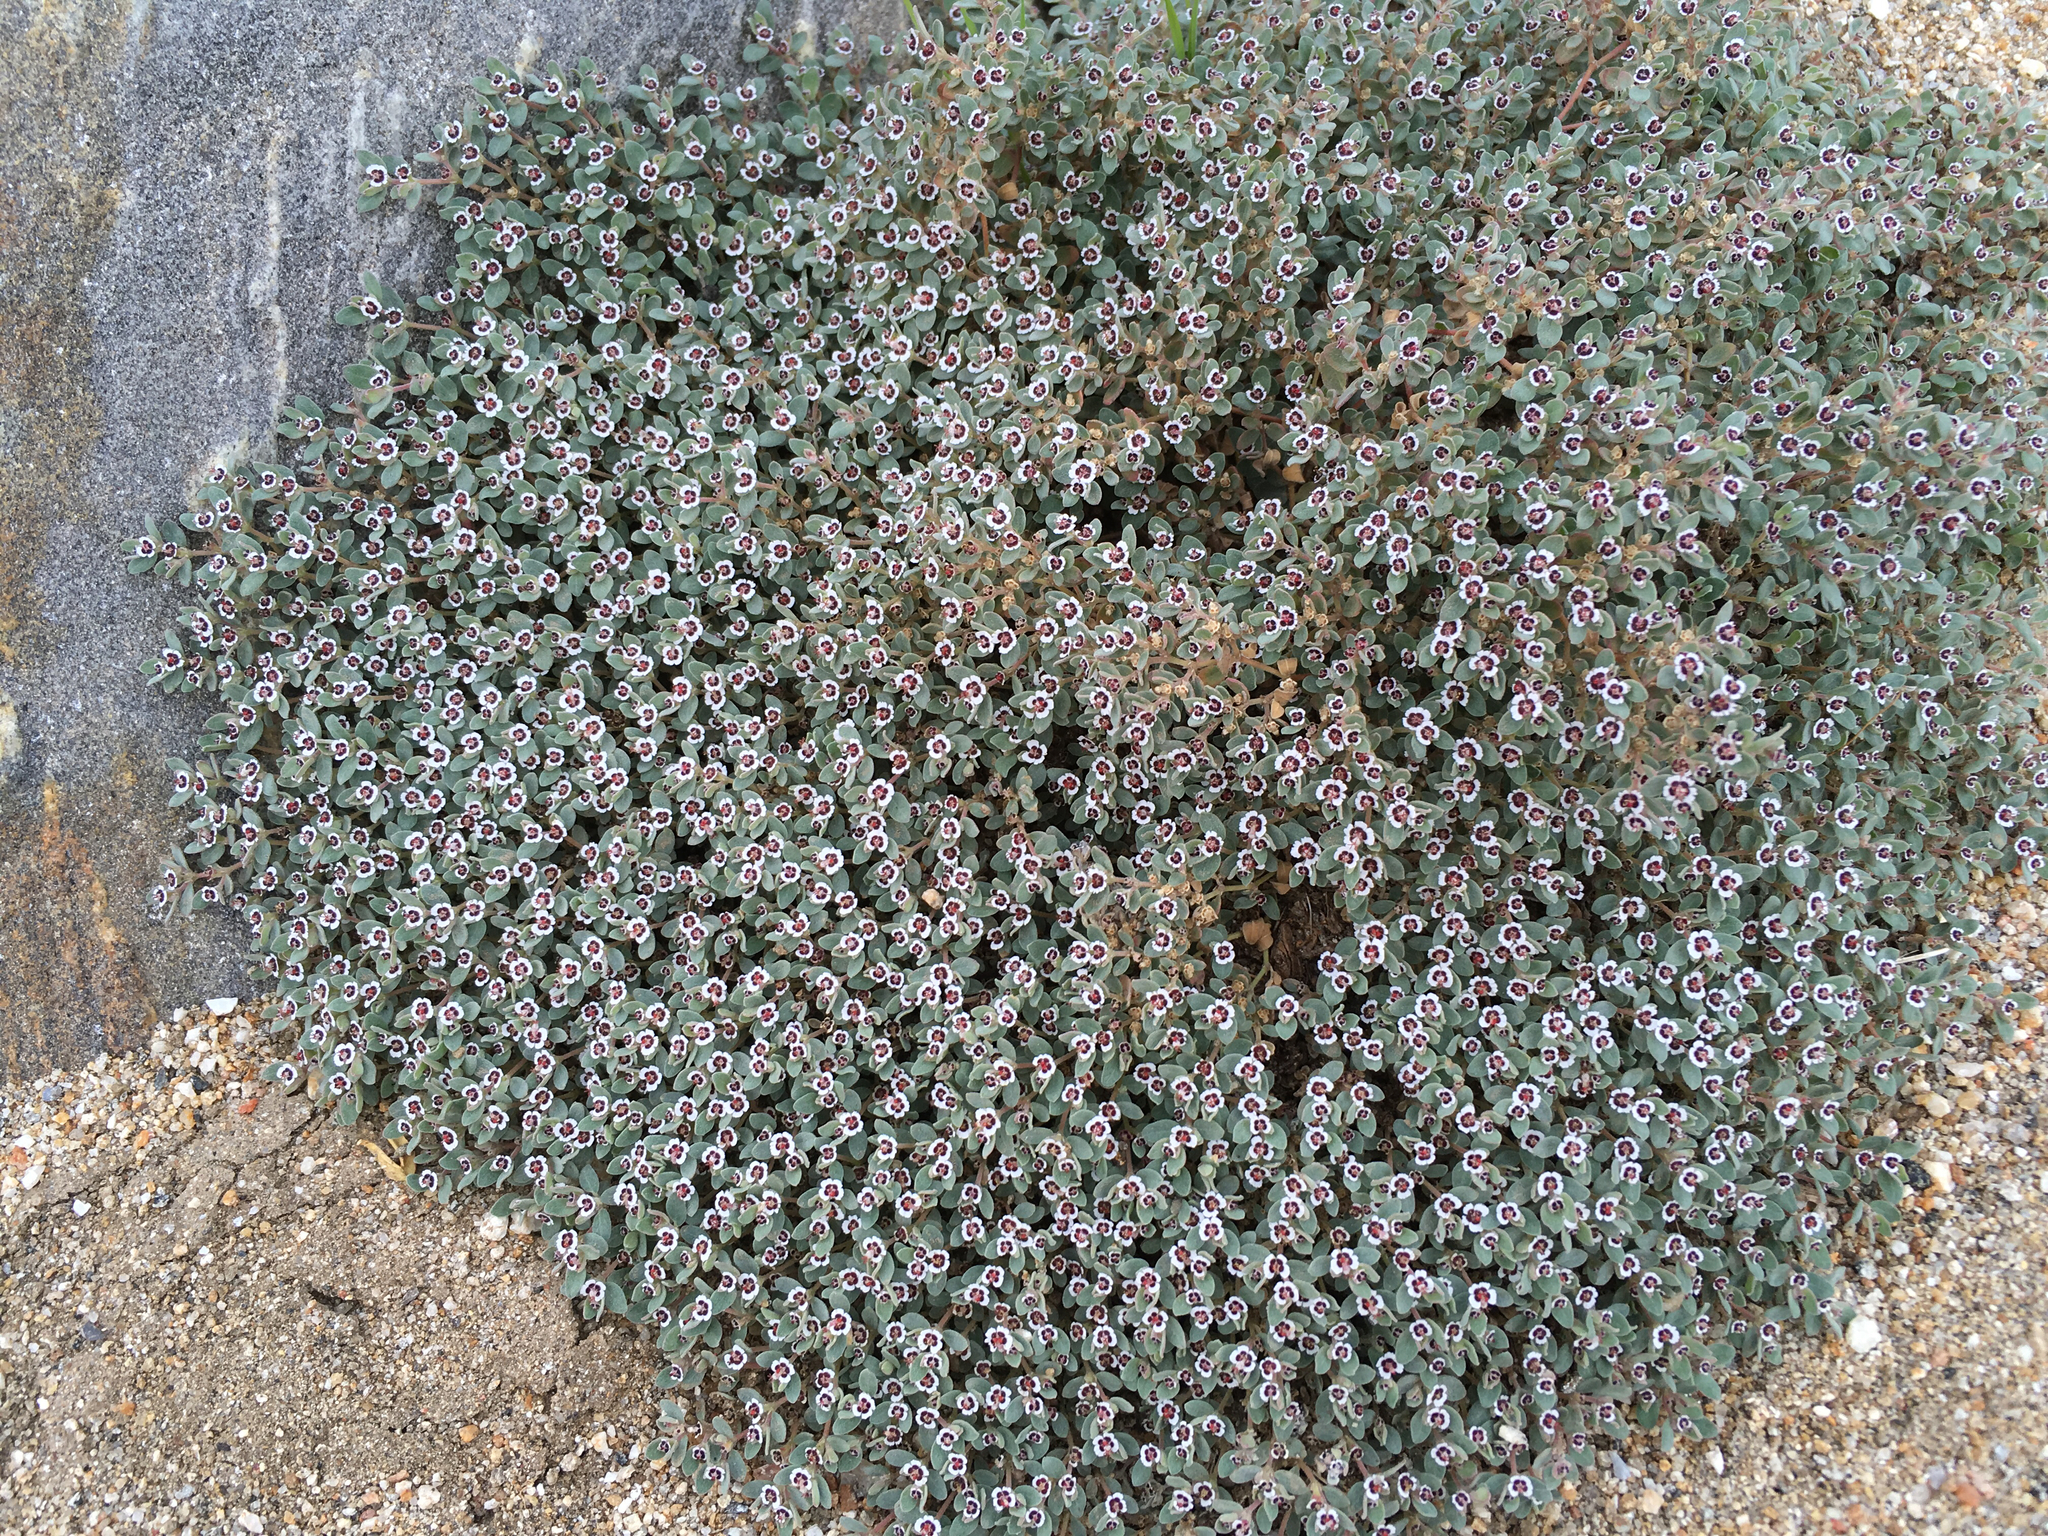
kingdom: Plantae
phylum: Tracheophyta
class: Magnoliopsida
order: Malpighiales
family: Euphorbiaceae
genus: Euphorbia
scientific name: Euphorbia melanadenia
